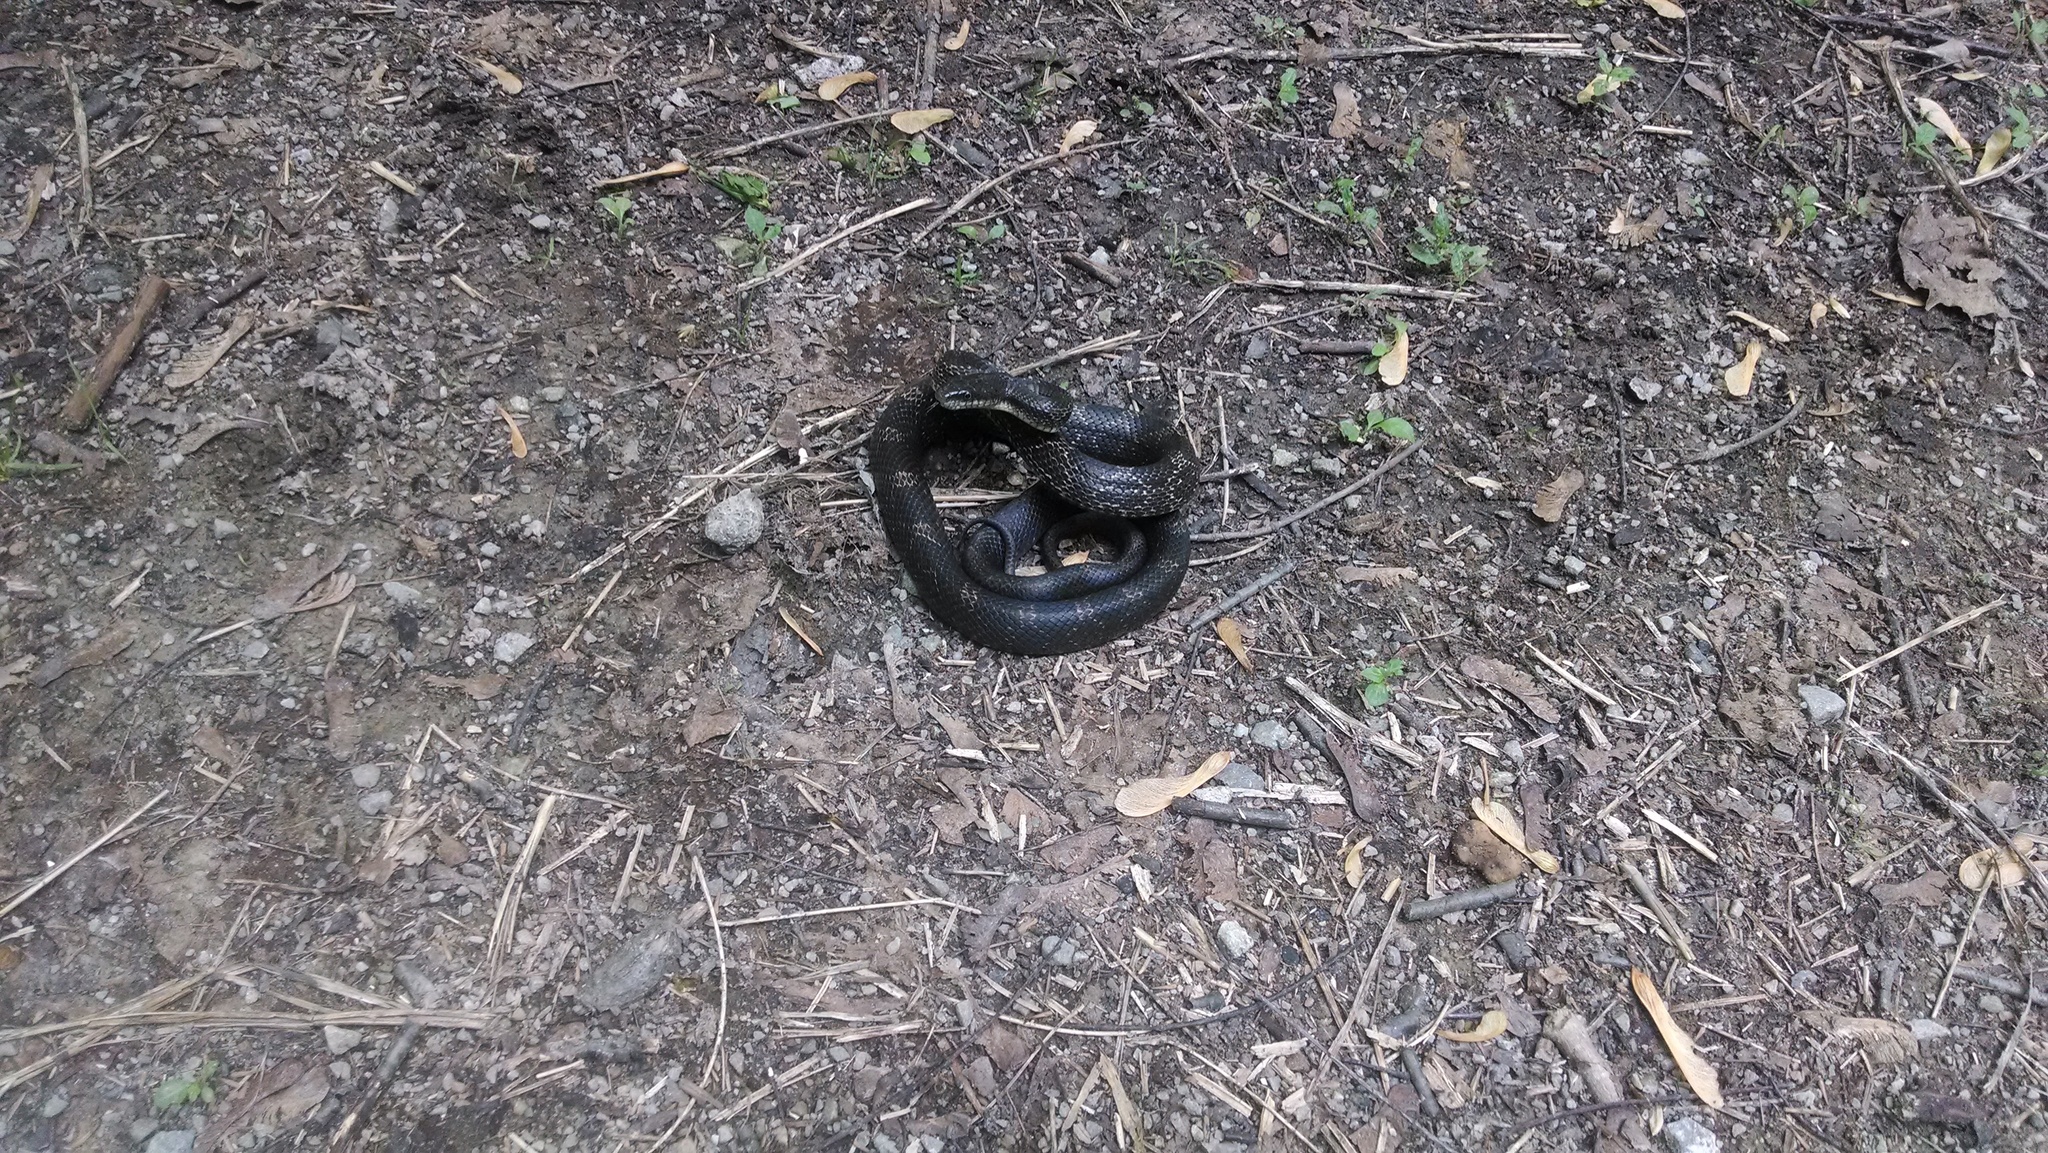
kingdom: Animalia
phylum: Chordata
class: Squamata
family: Colubridae
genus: Pantherophis
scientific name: Pantherophis spiloides
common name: Gray rat snake
